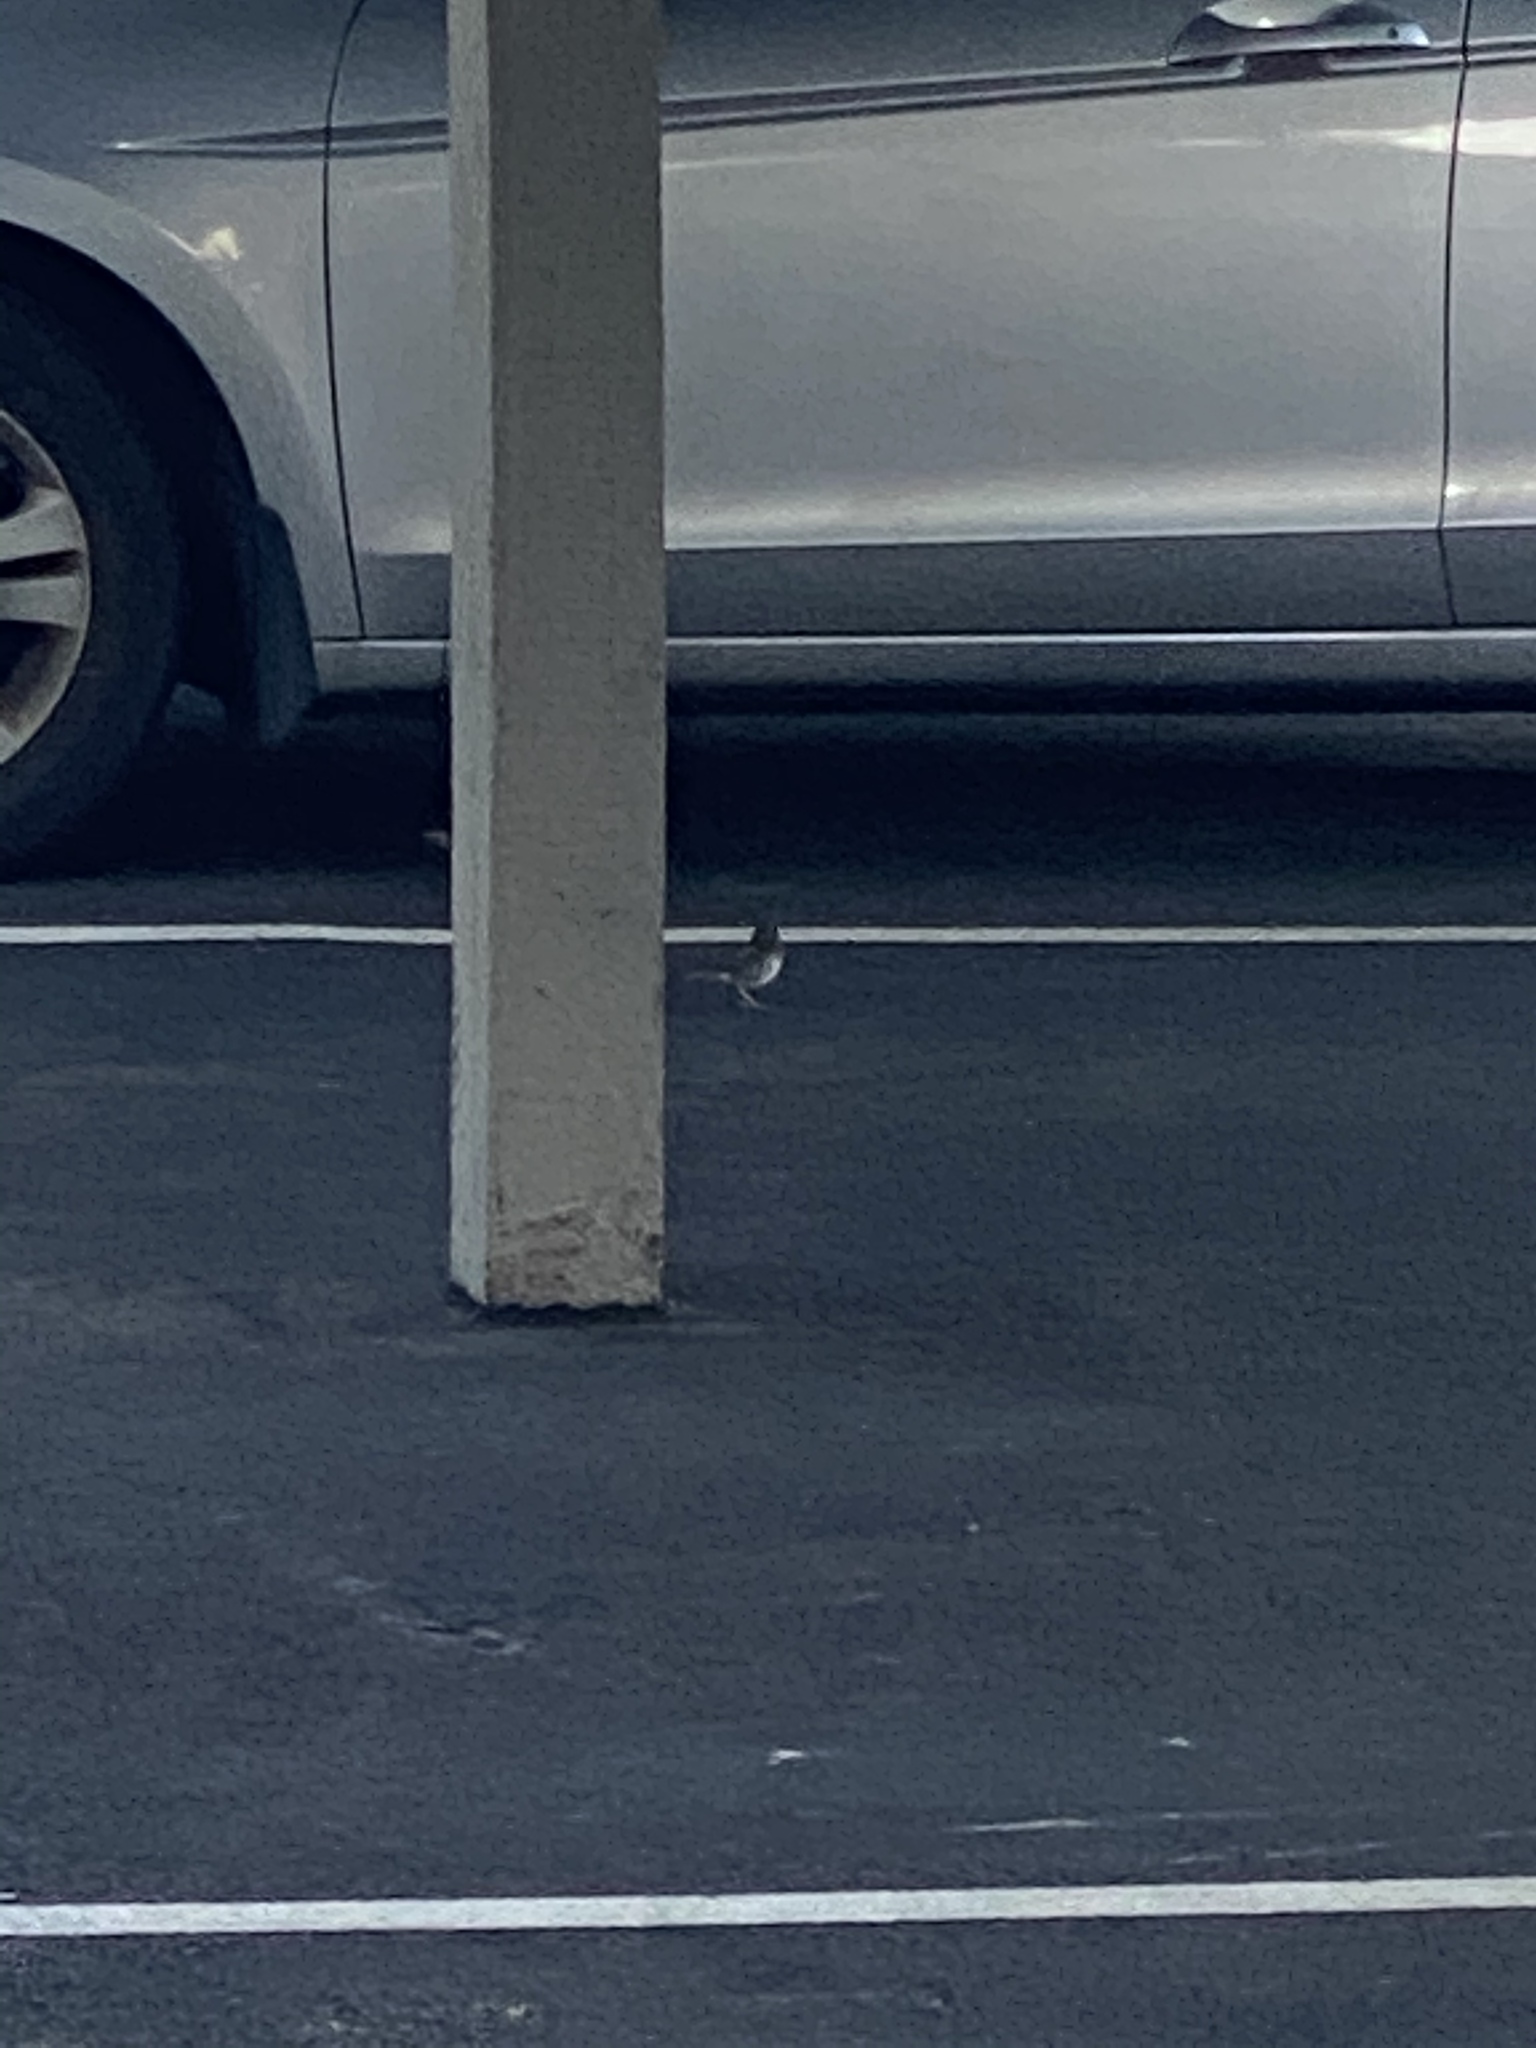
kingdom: Animalia
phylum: Chordata
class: Aves
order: Passeriformes
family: Passerellidae
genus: Junco
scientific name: Junco hyemalis
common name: Dark-eyed junco
